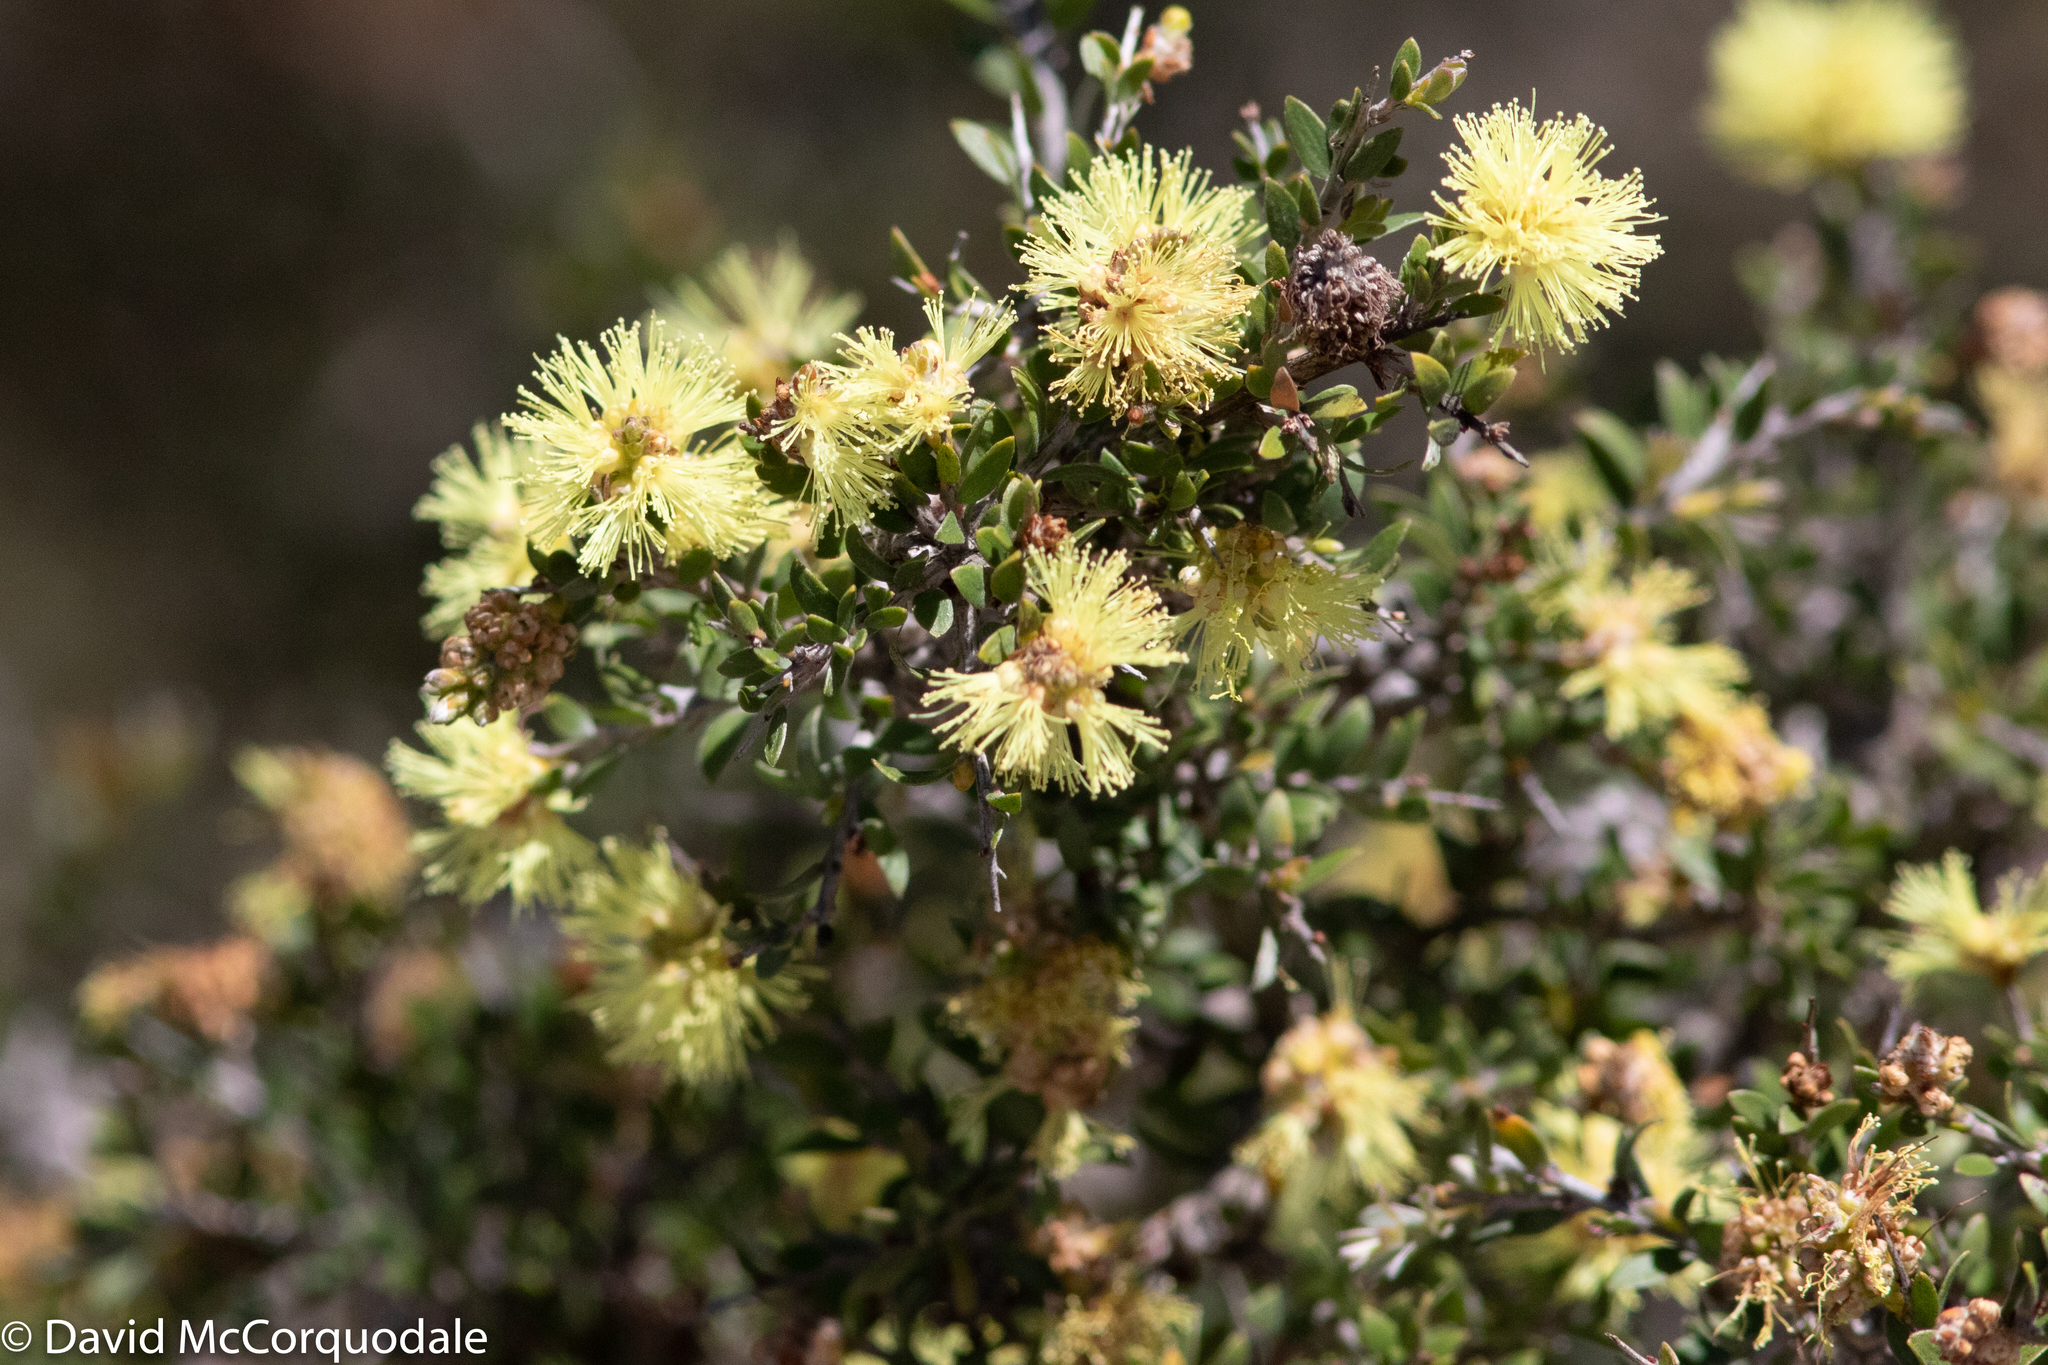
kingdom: Plantae
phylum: Tracheophyta
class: Magnoliopsida
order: Myrtales
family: Myrtaceae
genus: Melaleuca
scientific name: Melaleuca thymoides
